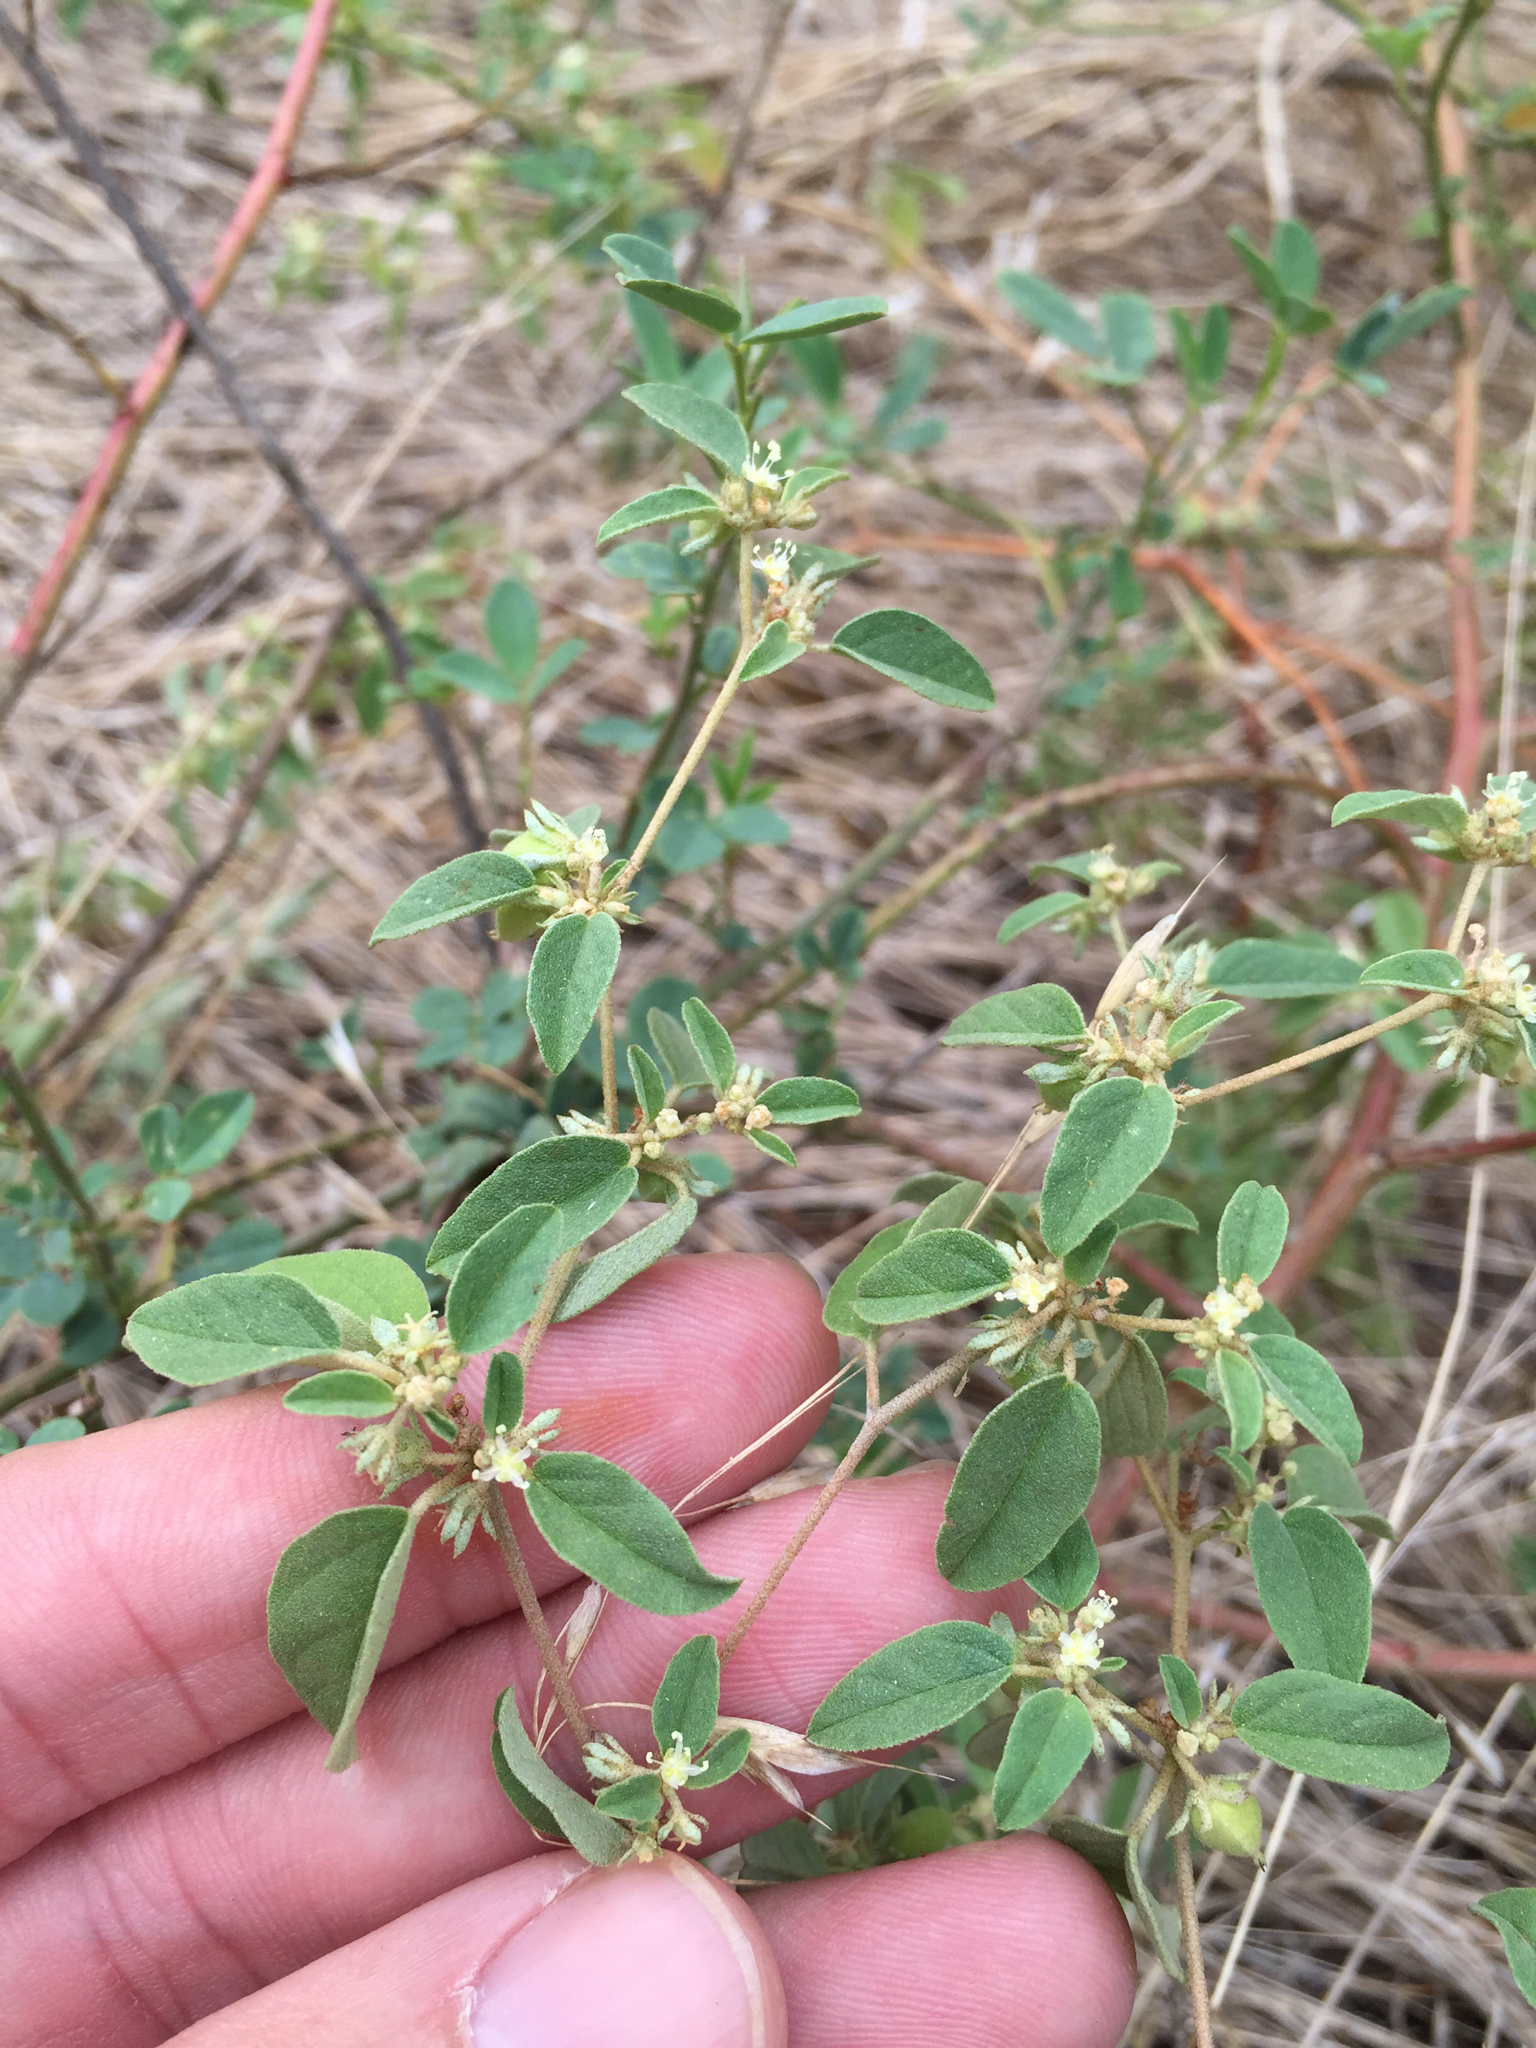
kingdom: Plantae
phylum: Tracheophyta
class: Magnoliopsida
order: Malpighiales
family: Euphorbiaceae
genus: Croton
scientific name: Croton monanthogynus
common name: One-seed croton
